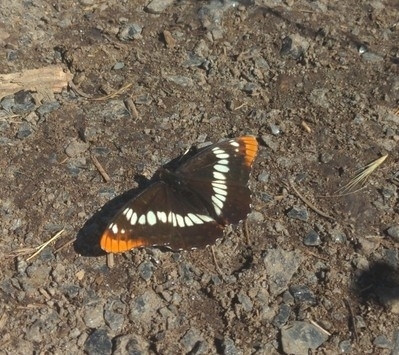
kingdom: Animalia
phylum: Arthropoda
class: Insecta
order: Lepidoptera
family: Nymphalidae
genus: Limenitis
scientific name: Limenitis lorquini
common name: Lorquin's admiral
